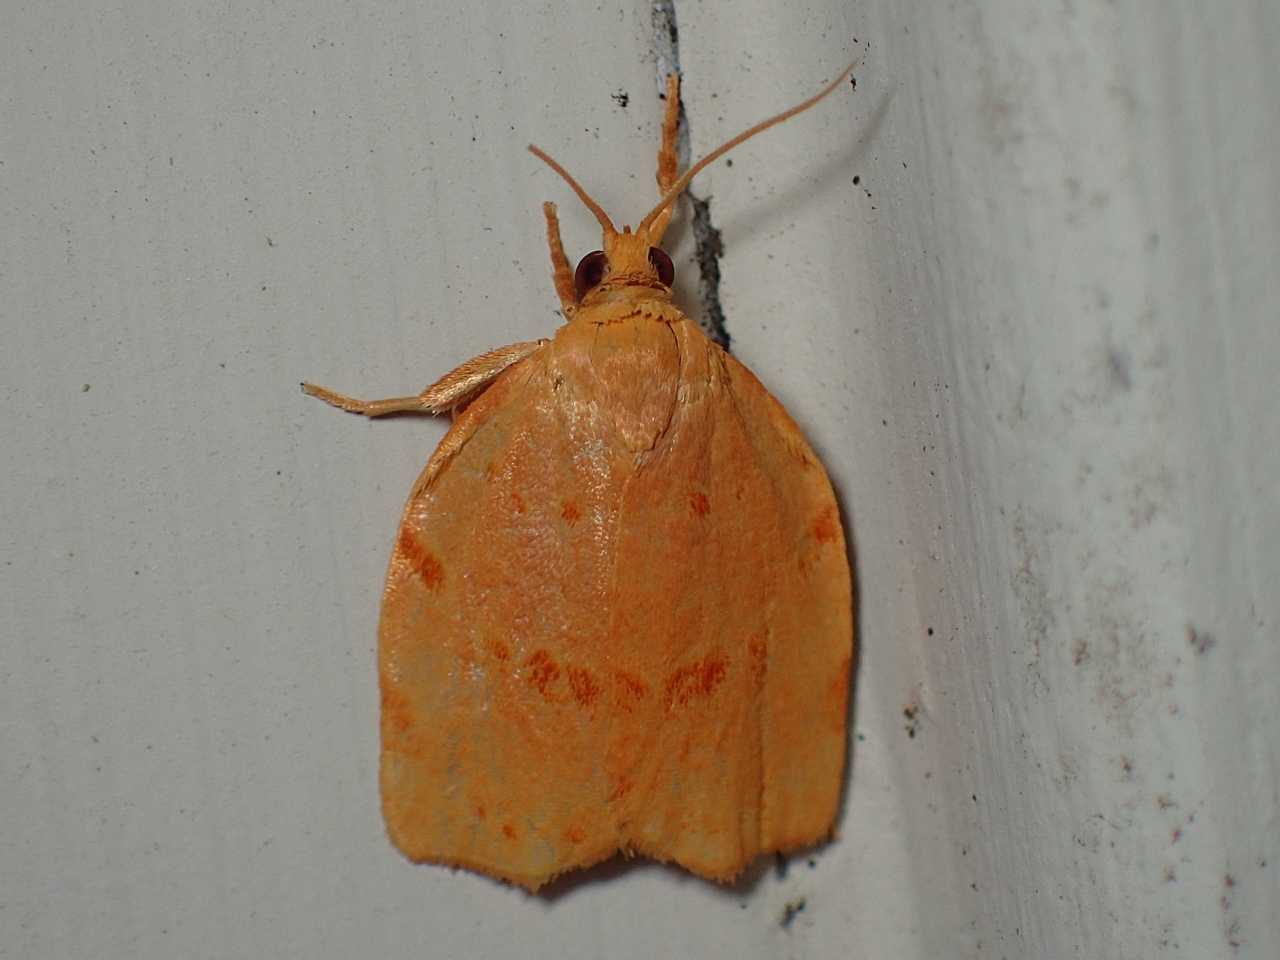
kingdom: Animalia
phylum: Arthropoda
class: Insecta
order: Lepidoptera
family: Tortricidae
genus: Archips
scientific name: Archips rileyana
